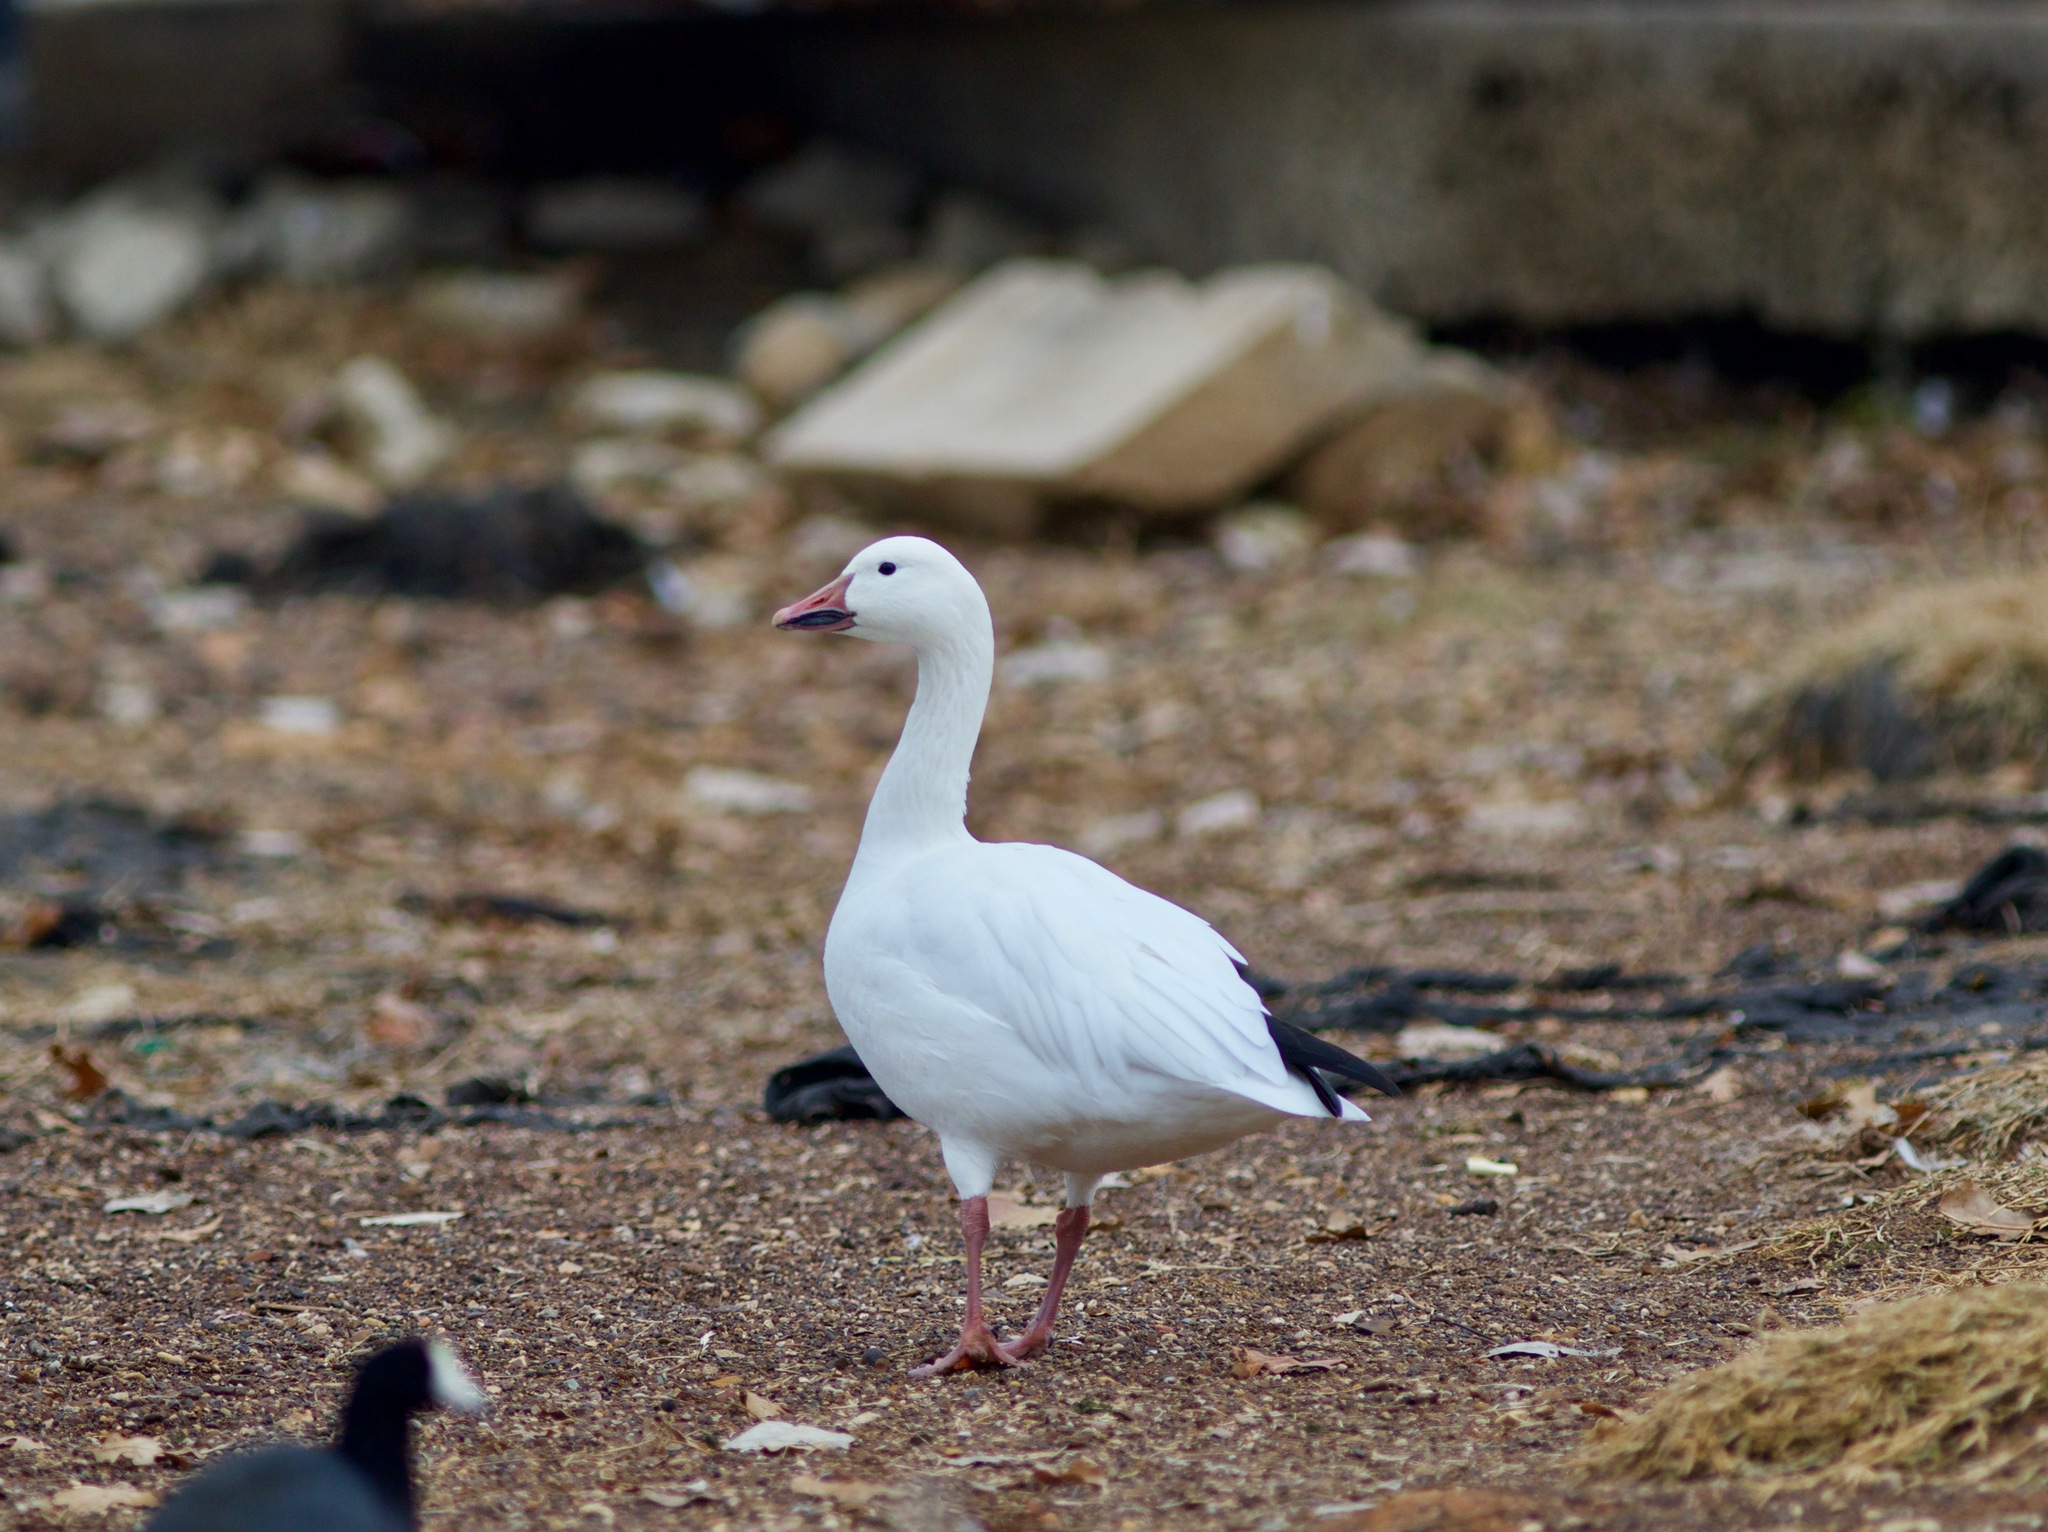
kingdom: Animalia
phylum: Chordata
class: Aves
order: Anseriformes
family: Anatidae
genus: Anser
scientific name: Anser caerulescens
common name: Snow goose
